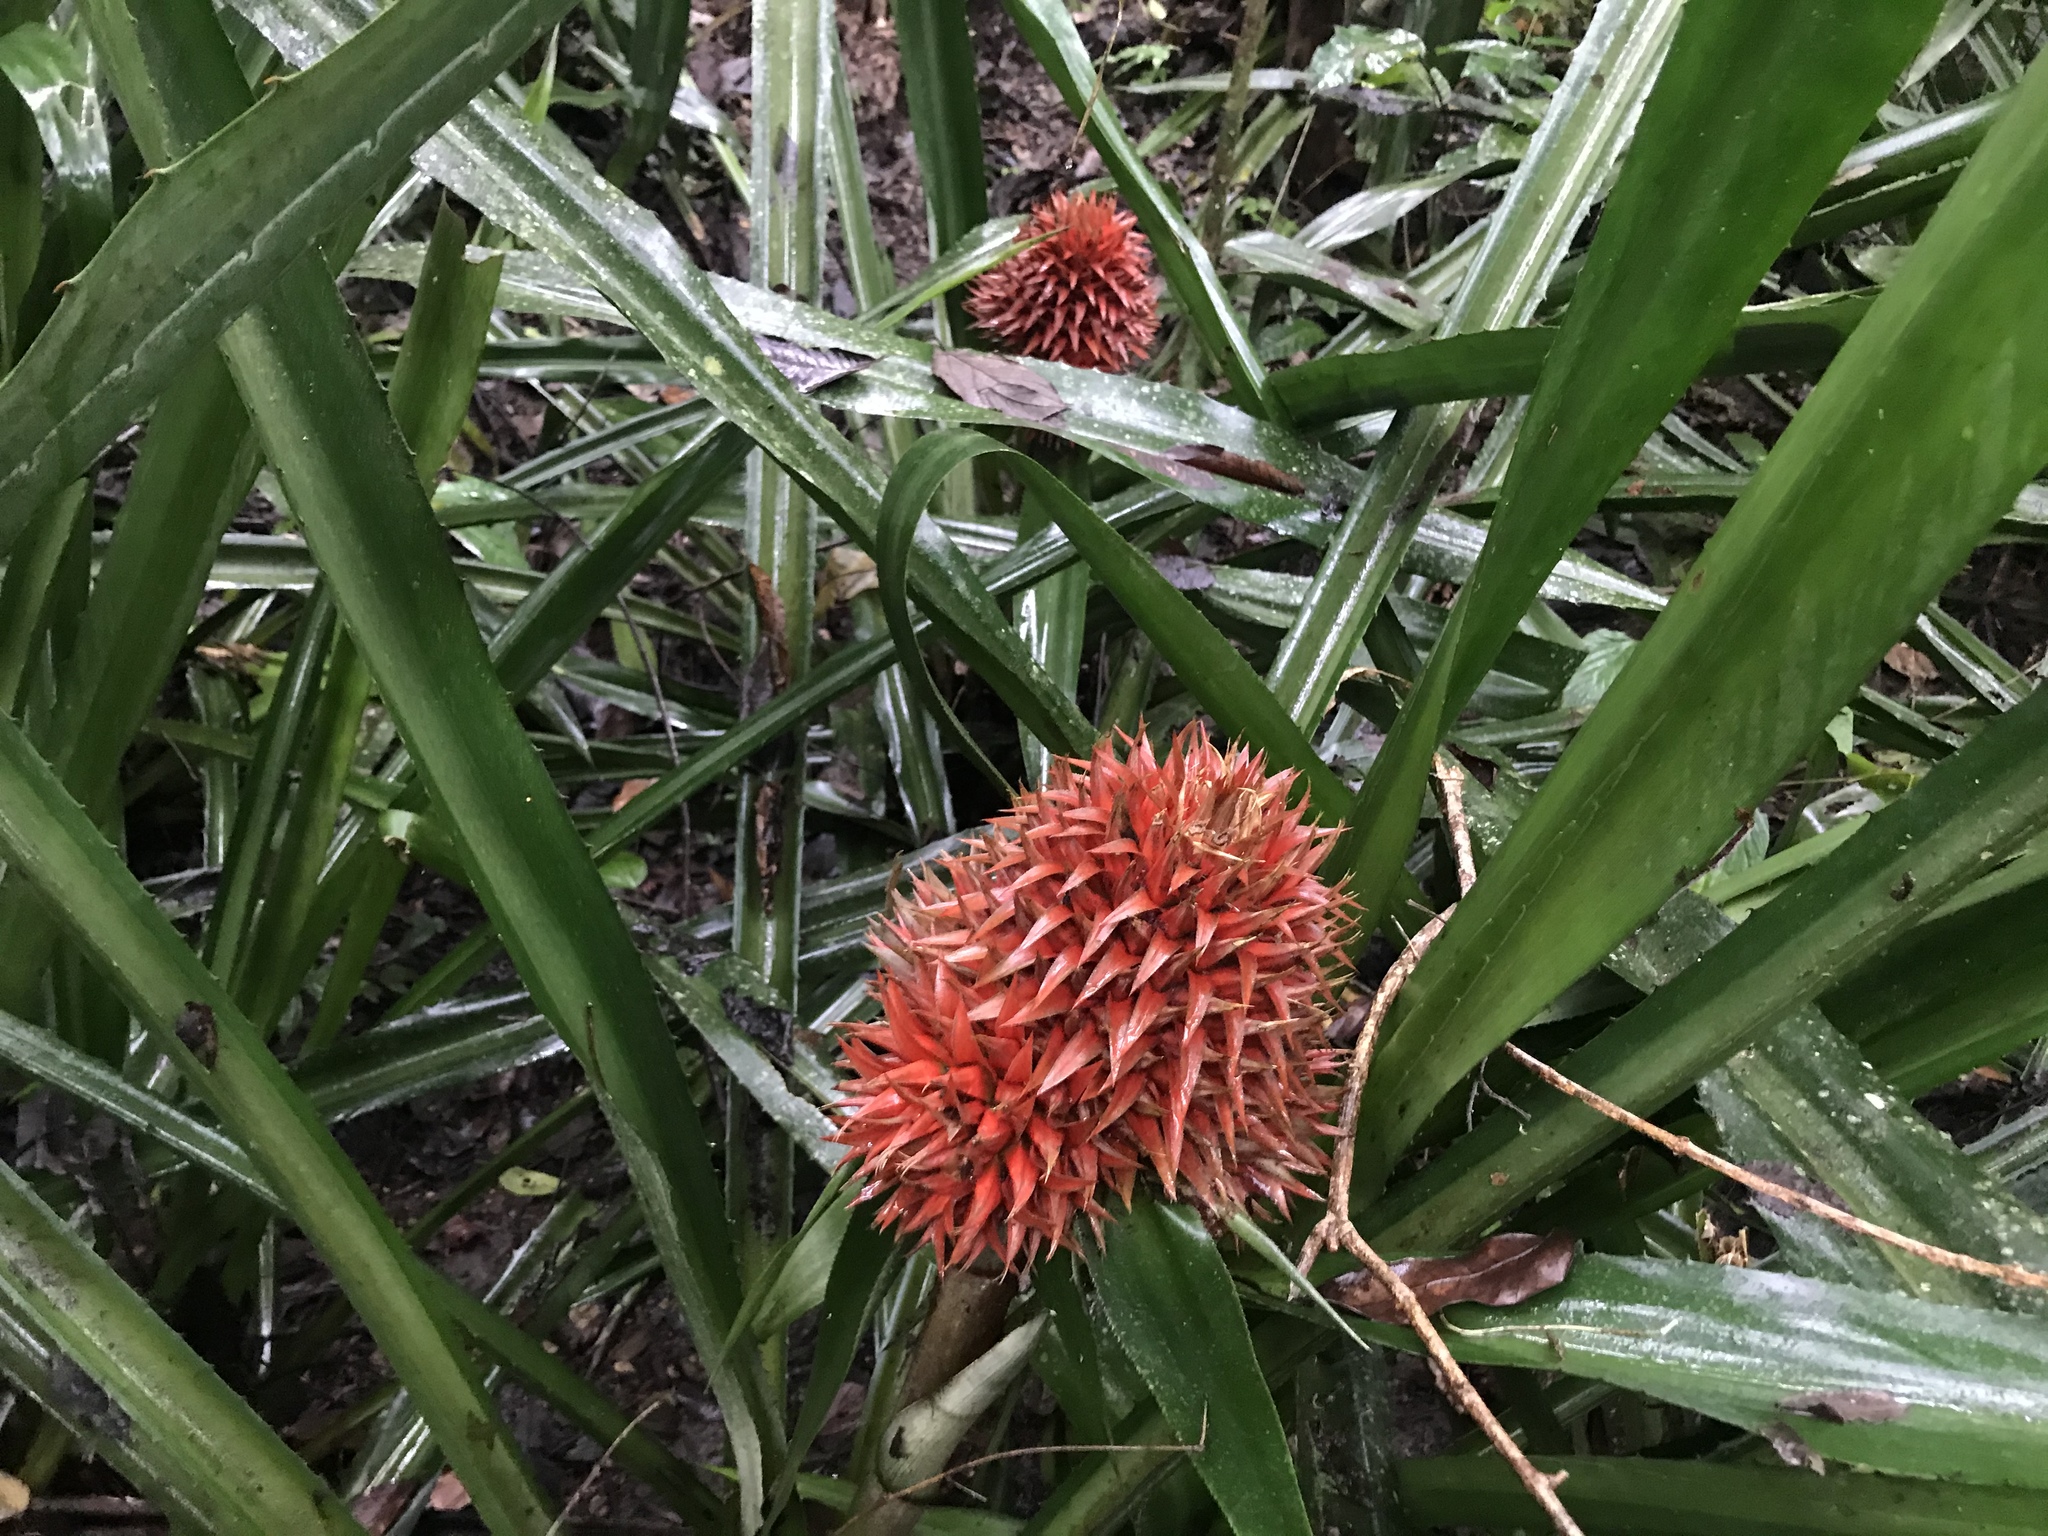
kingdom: Plantae
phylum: Tracheophyta
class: Liliopsida
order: Poales
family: Bromeliaceae
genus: Aechmea
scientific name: Aechmea magdalenae
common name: Arghan
